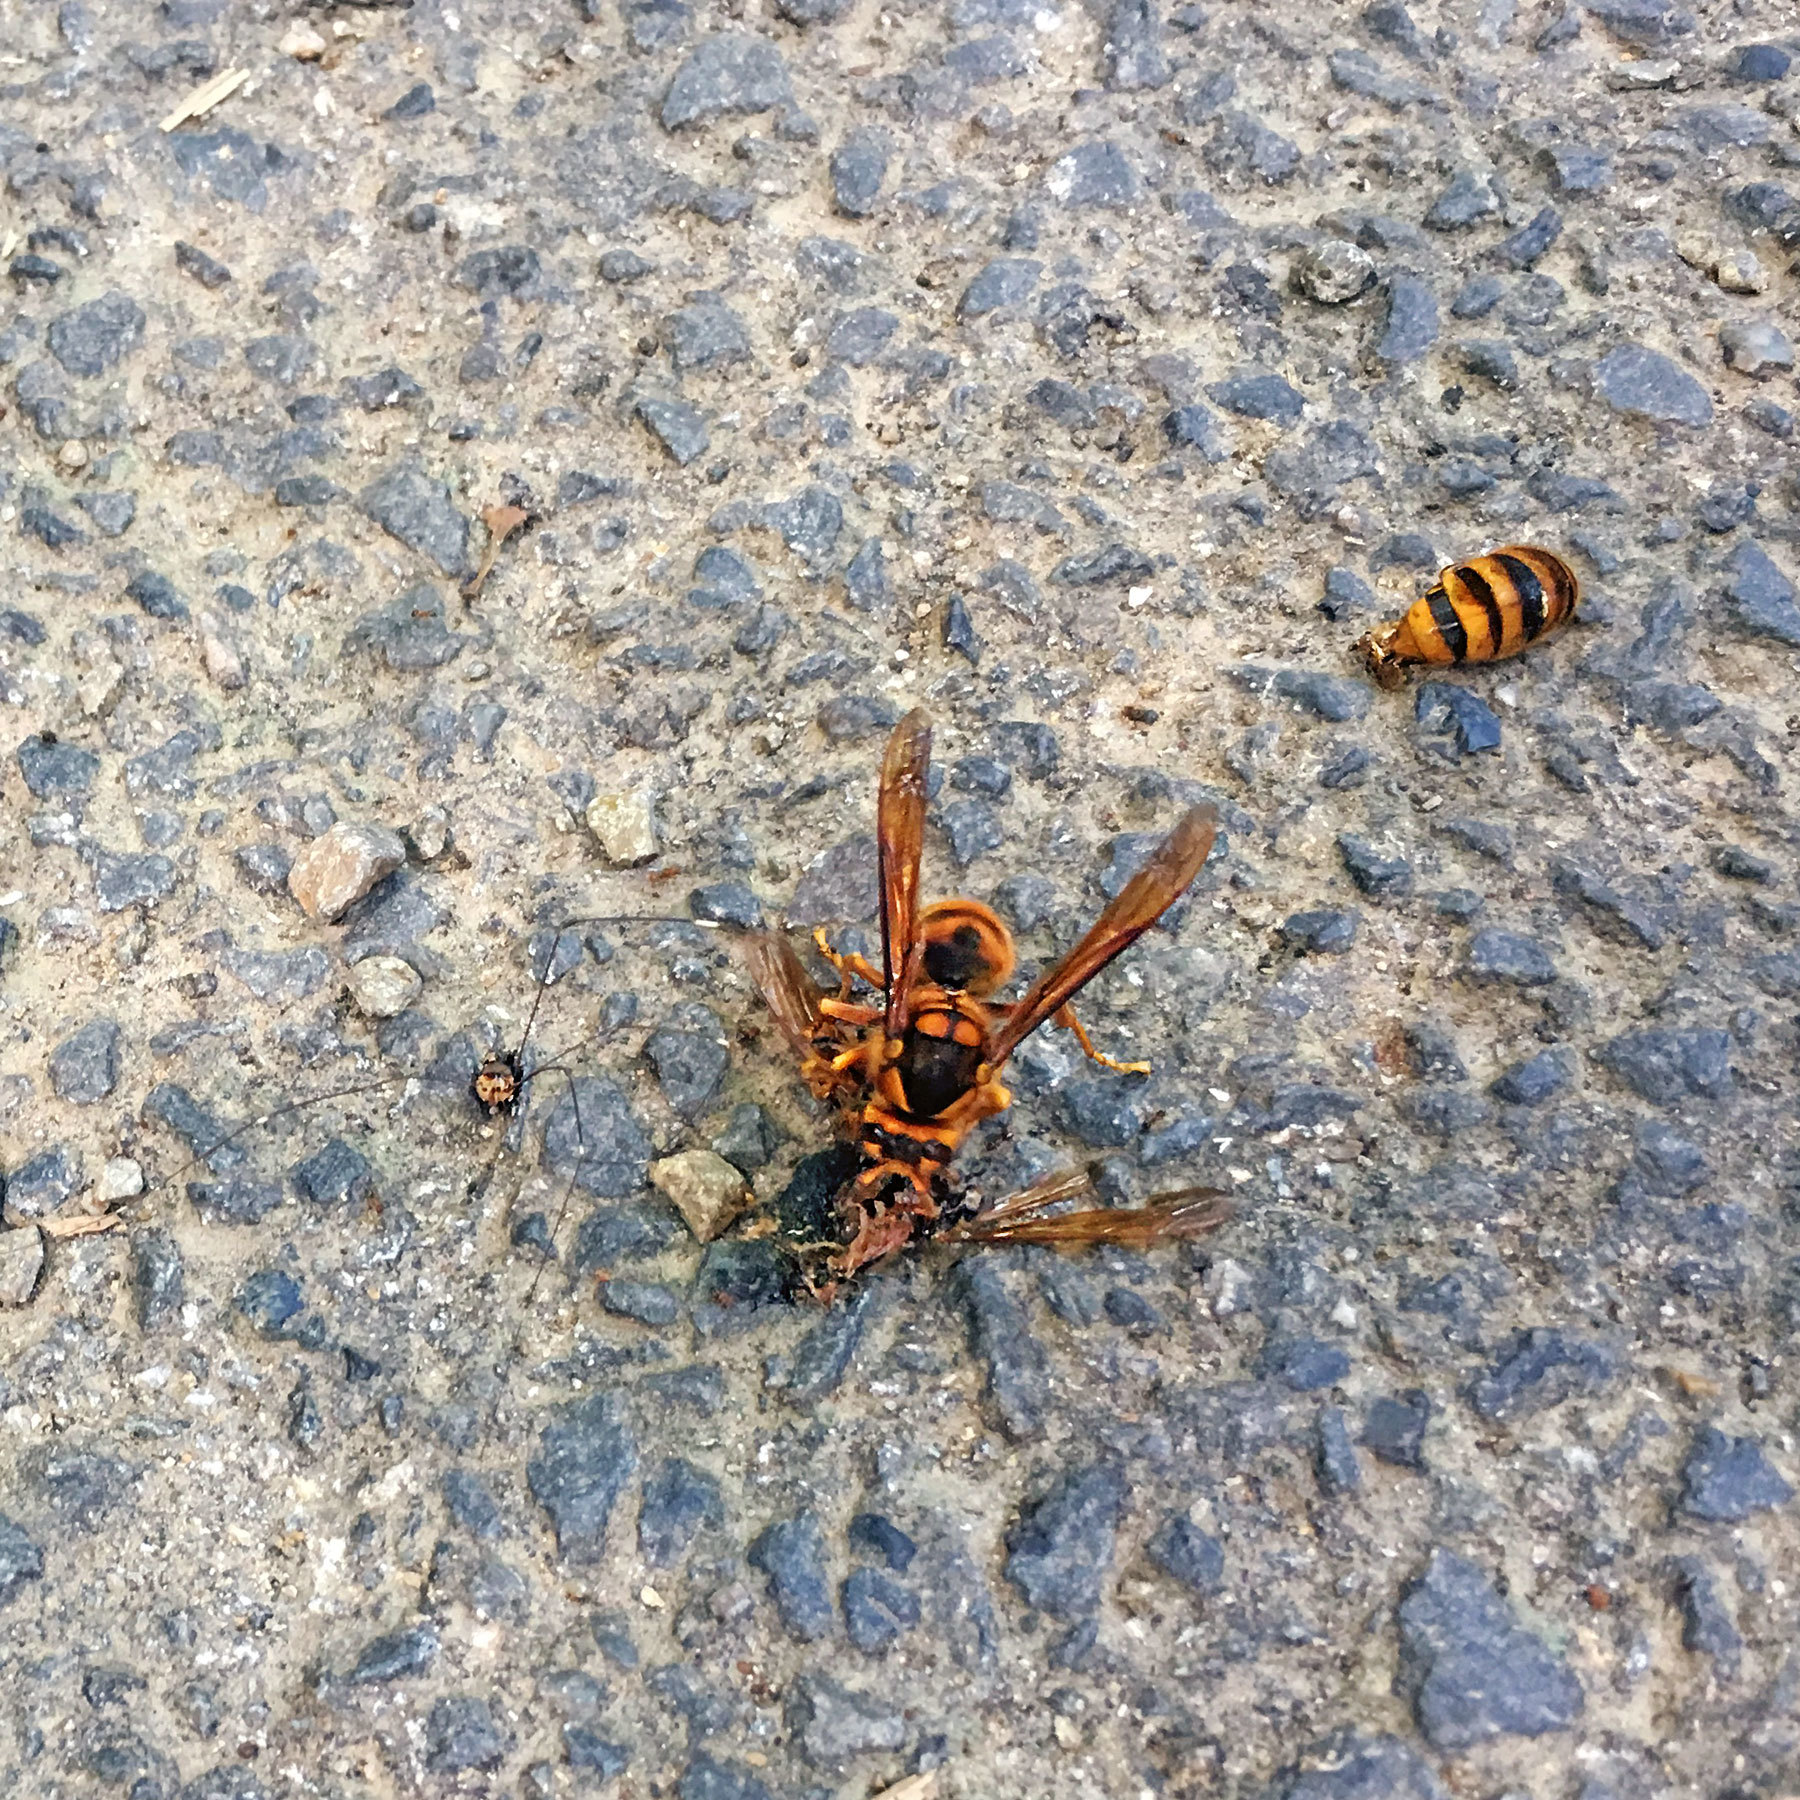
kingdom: Animalia
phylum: Arthropoda
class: Insecta
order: Hymenoptera
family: Vespidae
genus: Vespa
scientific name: Vespa simillima
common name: Vespid wasp
